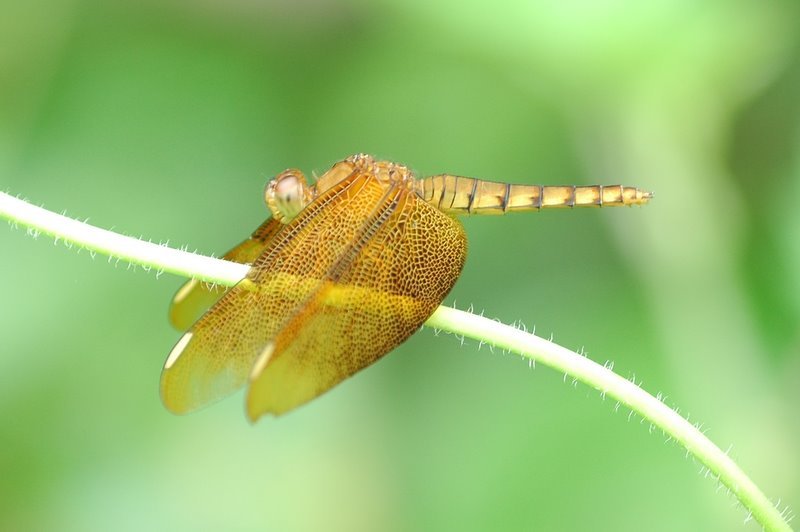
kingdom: Animalia
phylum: Arthropoda
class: Insecta
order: Odonata
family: Libellulidae
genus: Neurothemis
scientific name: Neurothemis fulvia
